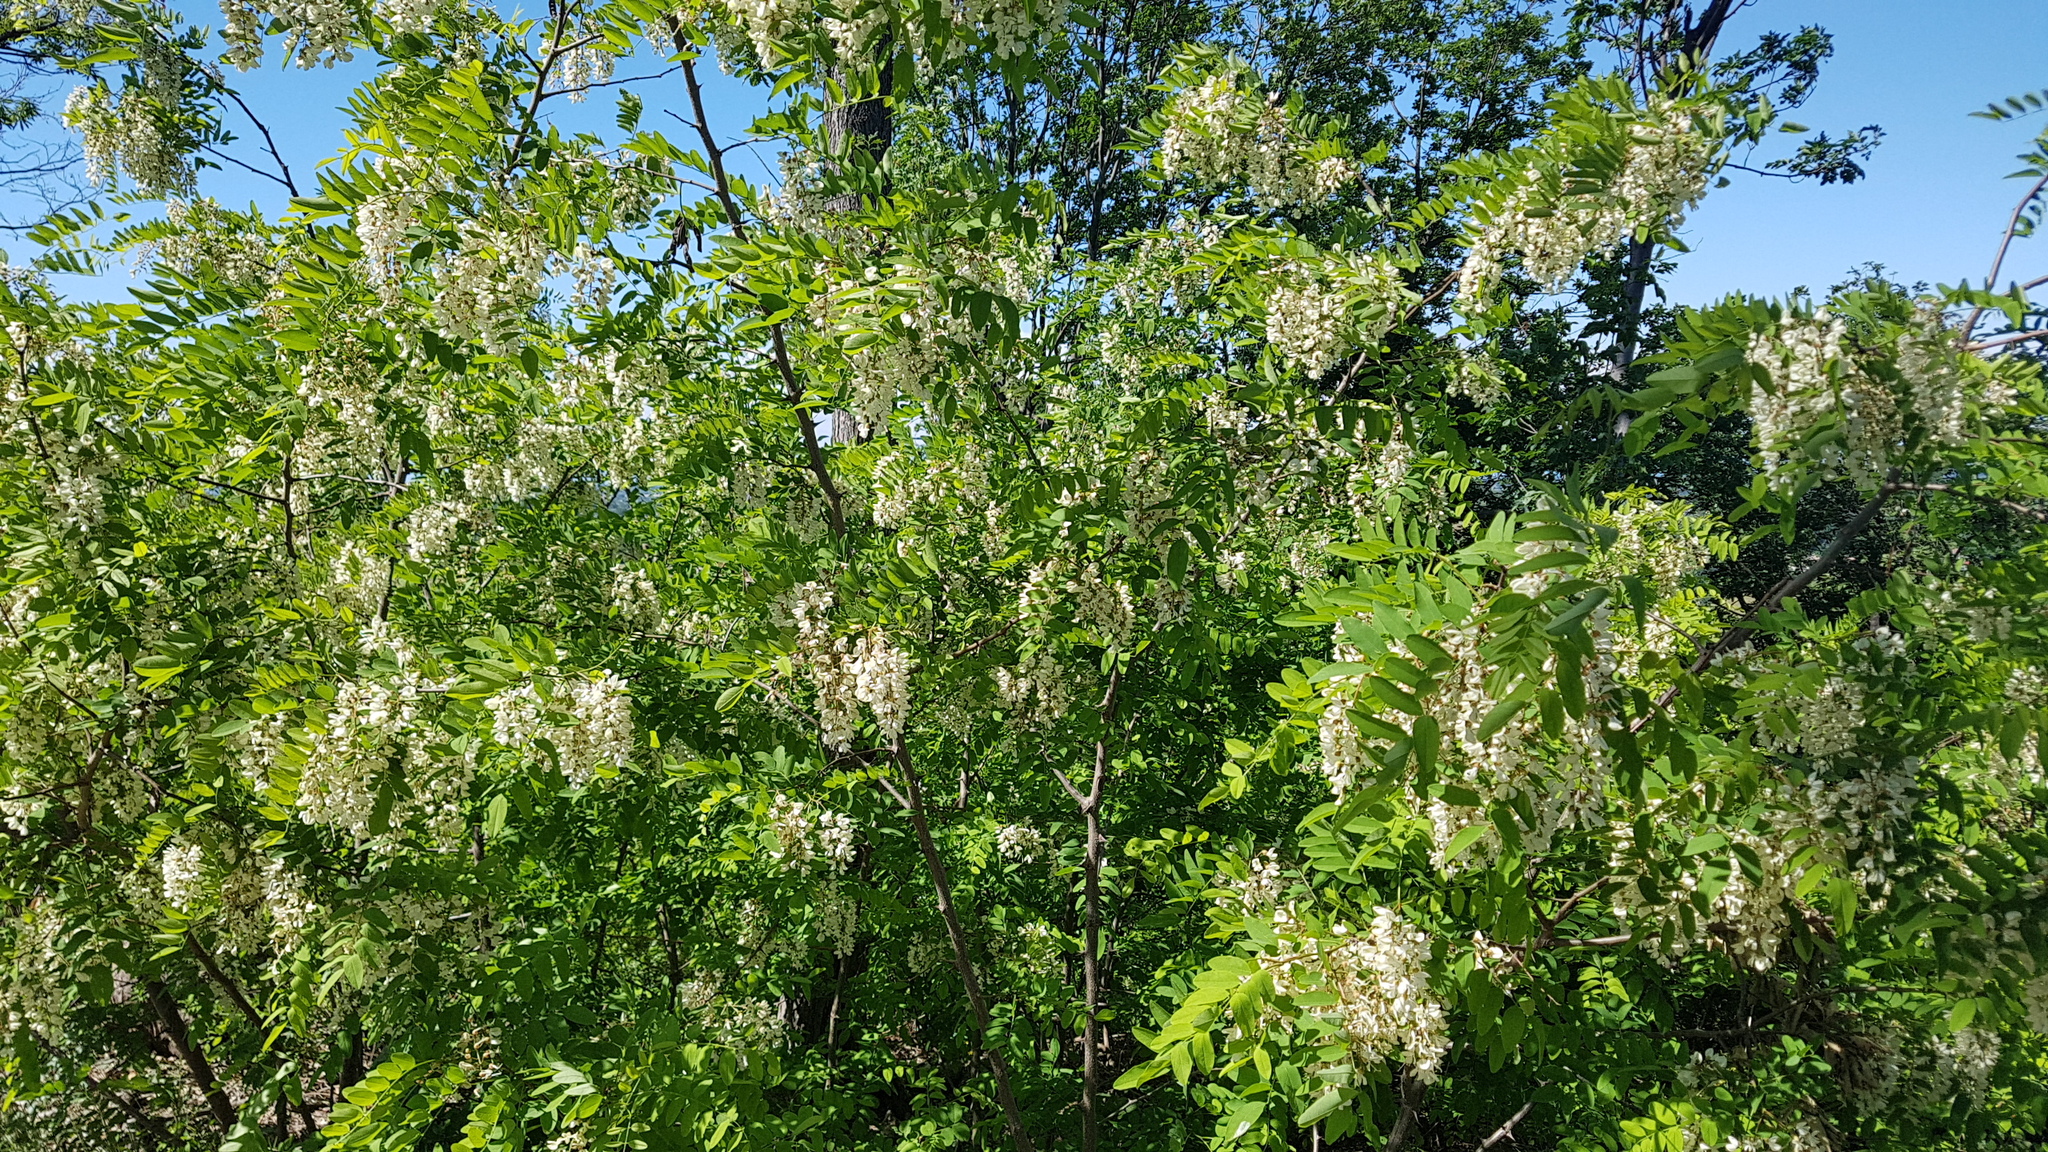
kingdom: Plantae
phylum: Tracheophyta
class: Magnoliopsida
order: Fabales
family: Fabaceae
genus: Robinia
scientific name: Robinia pseudoacacia
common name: Black locust
